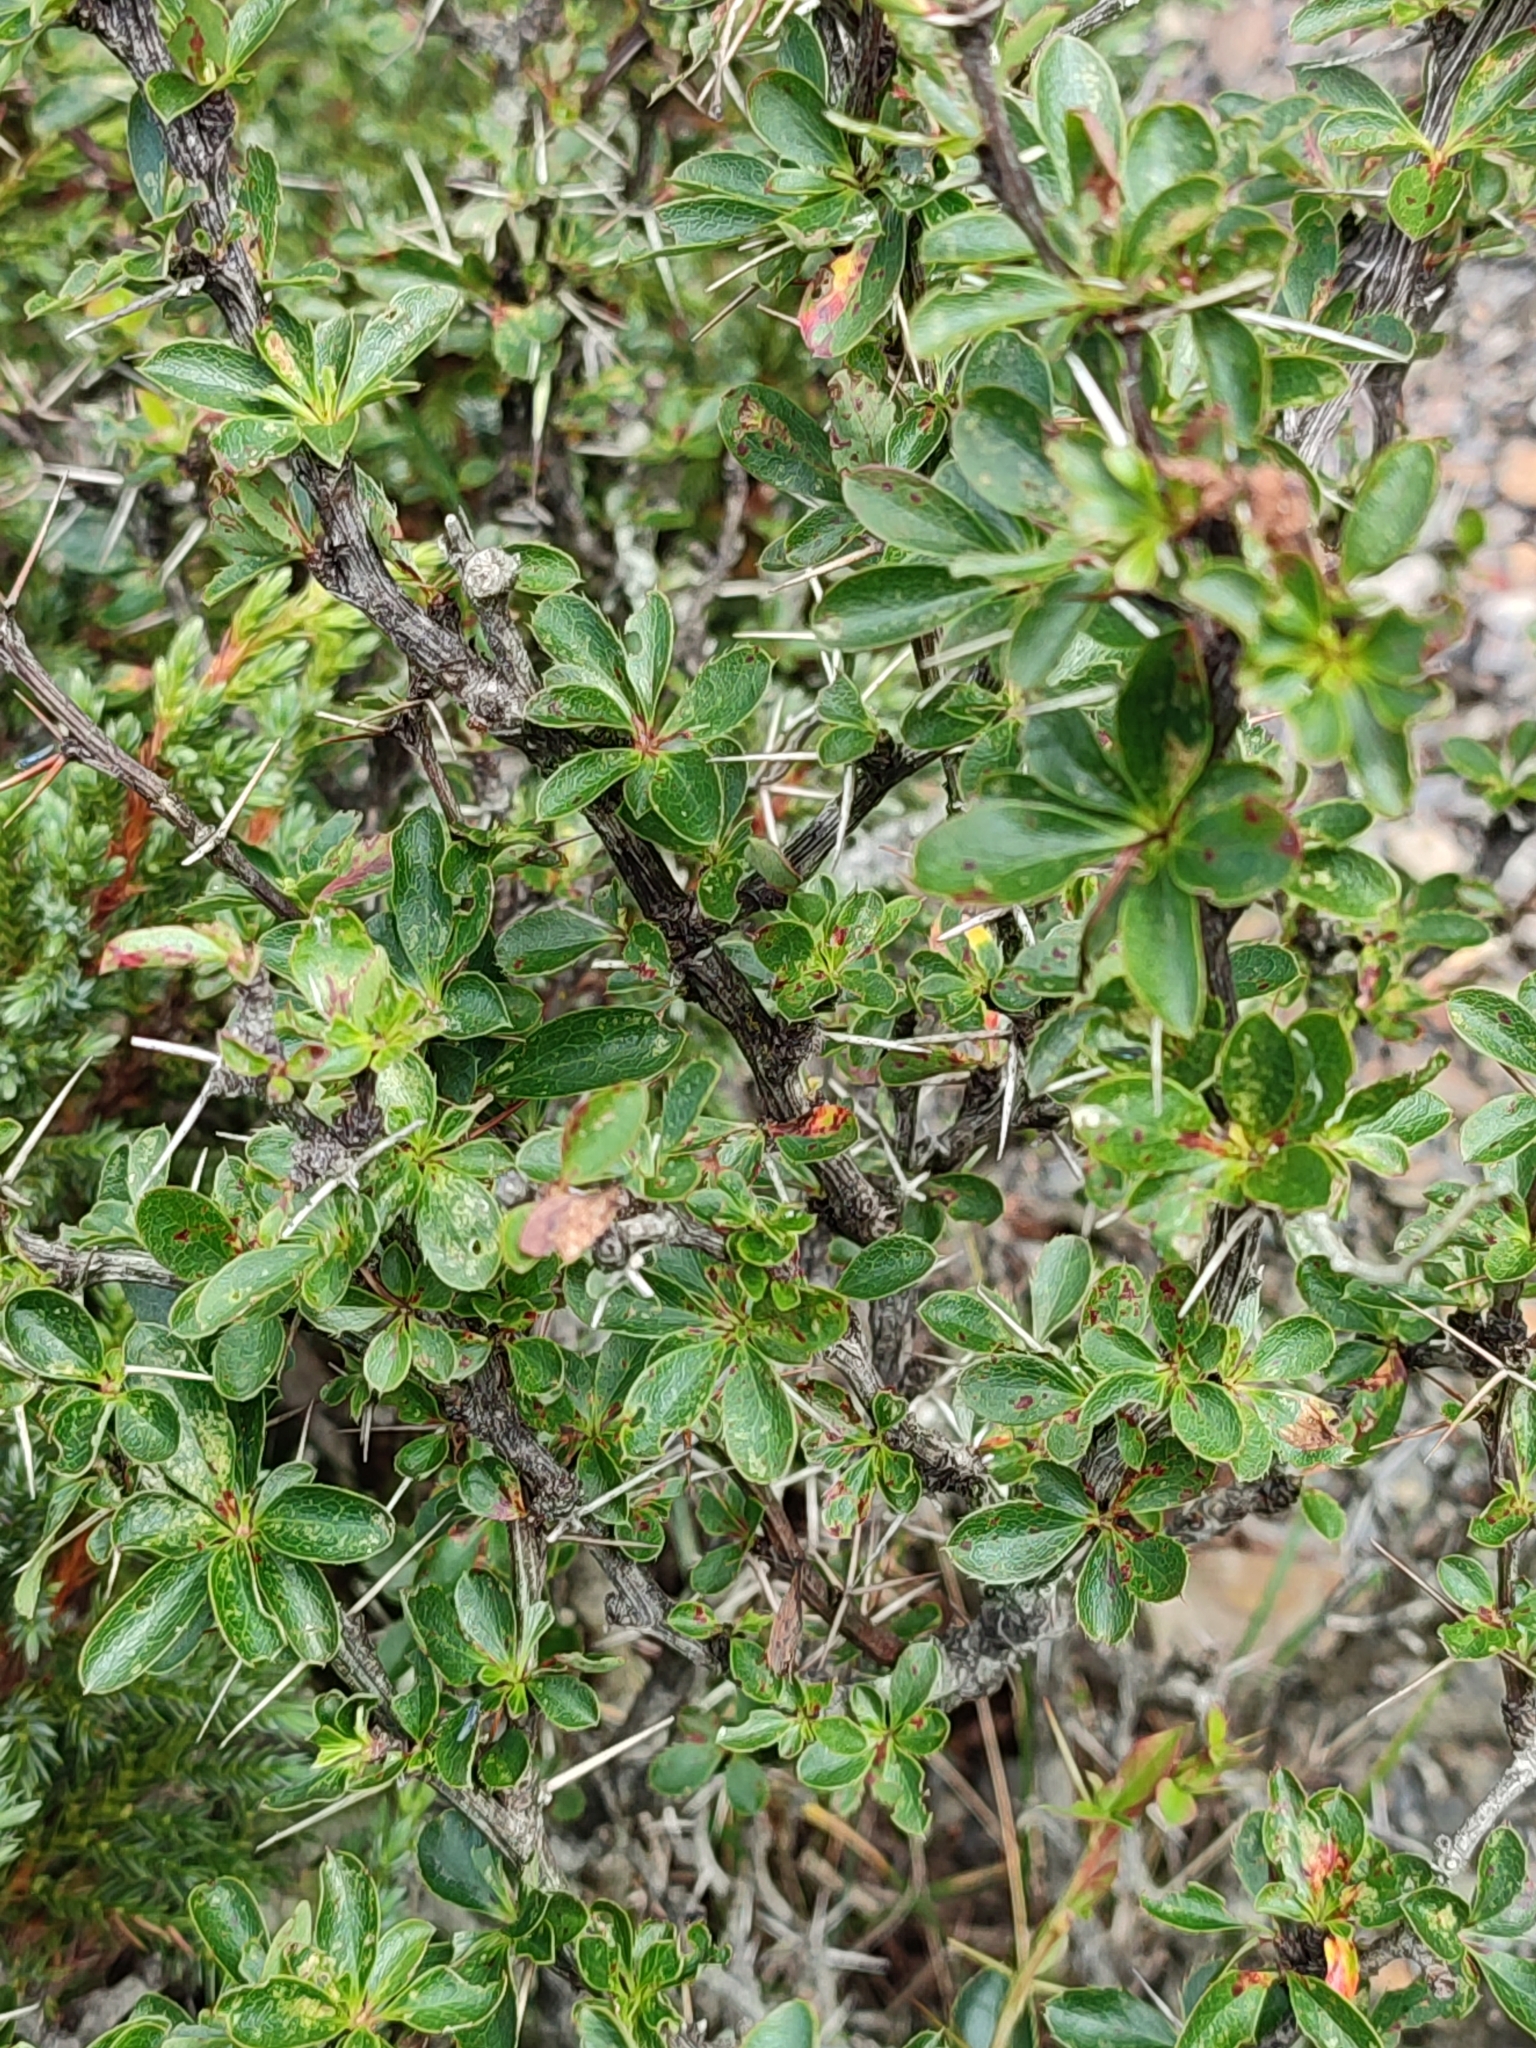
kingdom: Plantae
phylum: Tracheophyta
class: Magnoliopsida
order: Ranunculales
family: Berberidaceae
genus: Berberis
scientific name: Berberis morrisonensis
